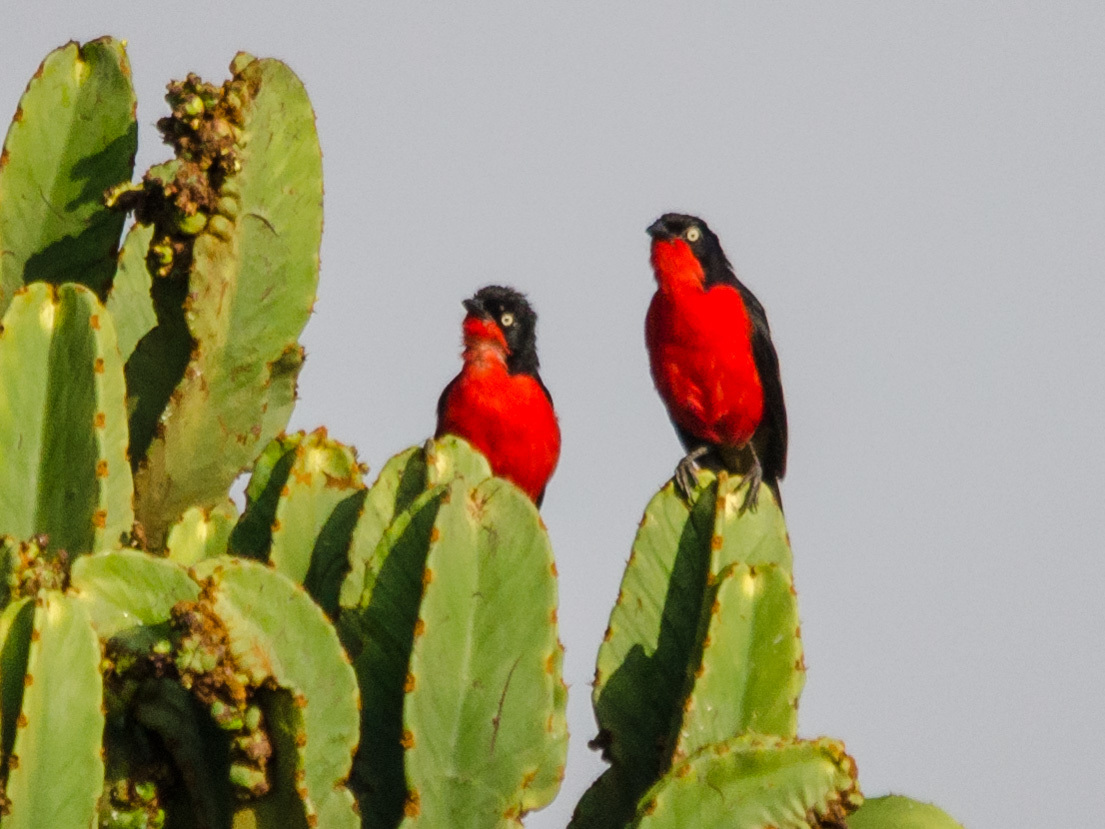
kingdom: Animalia
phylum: Chordata
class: Aves
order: Passeriformes
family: Malaconotidae
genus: Laniarius
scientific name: Laniarius erythrogaster
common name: Black-headed gonolek
